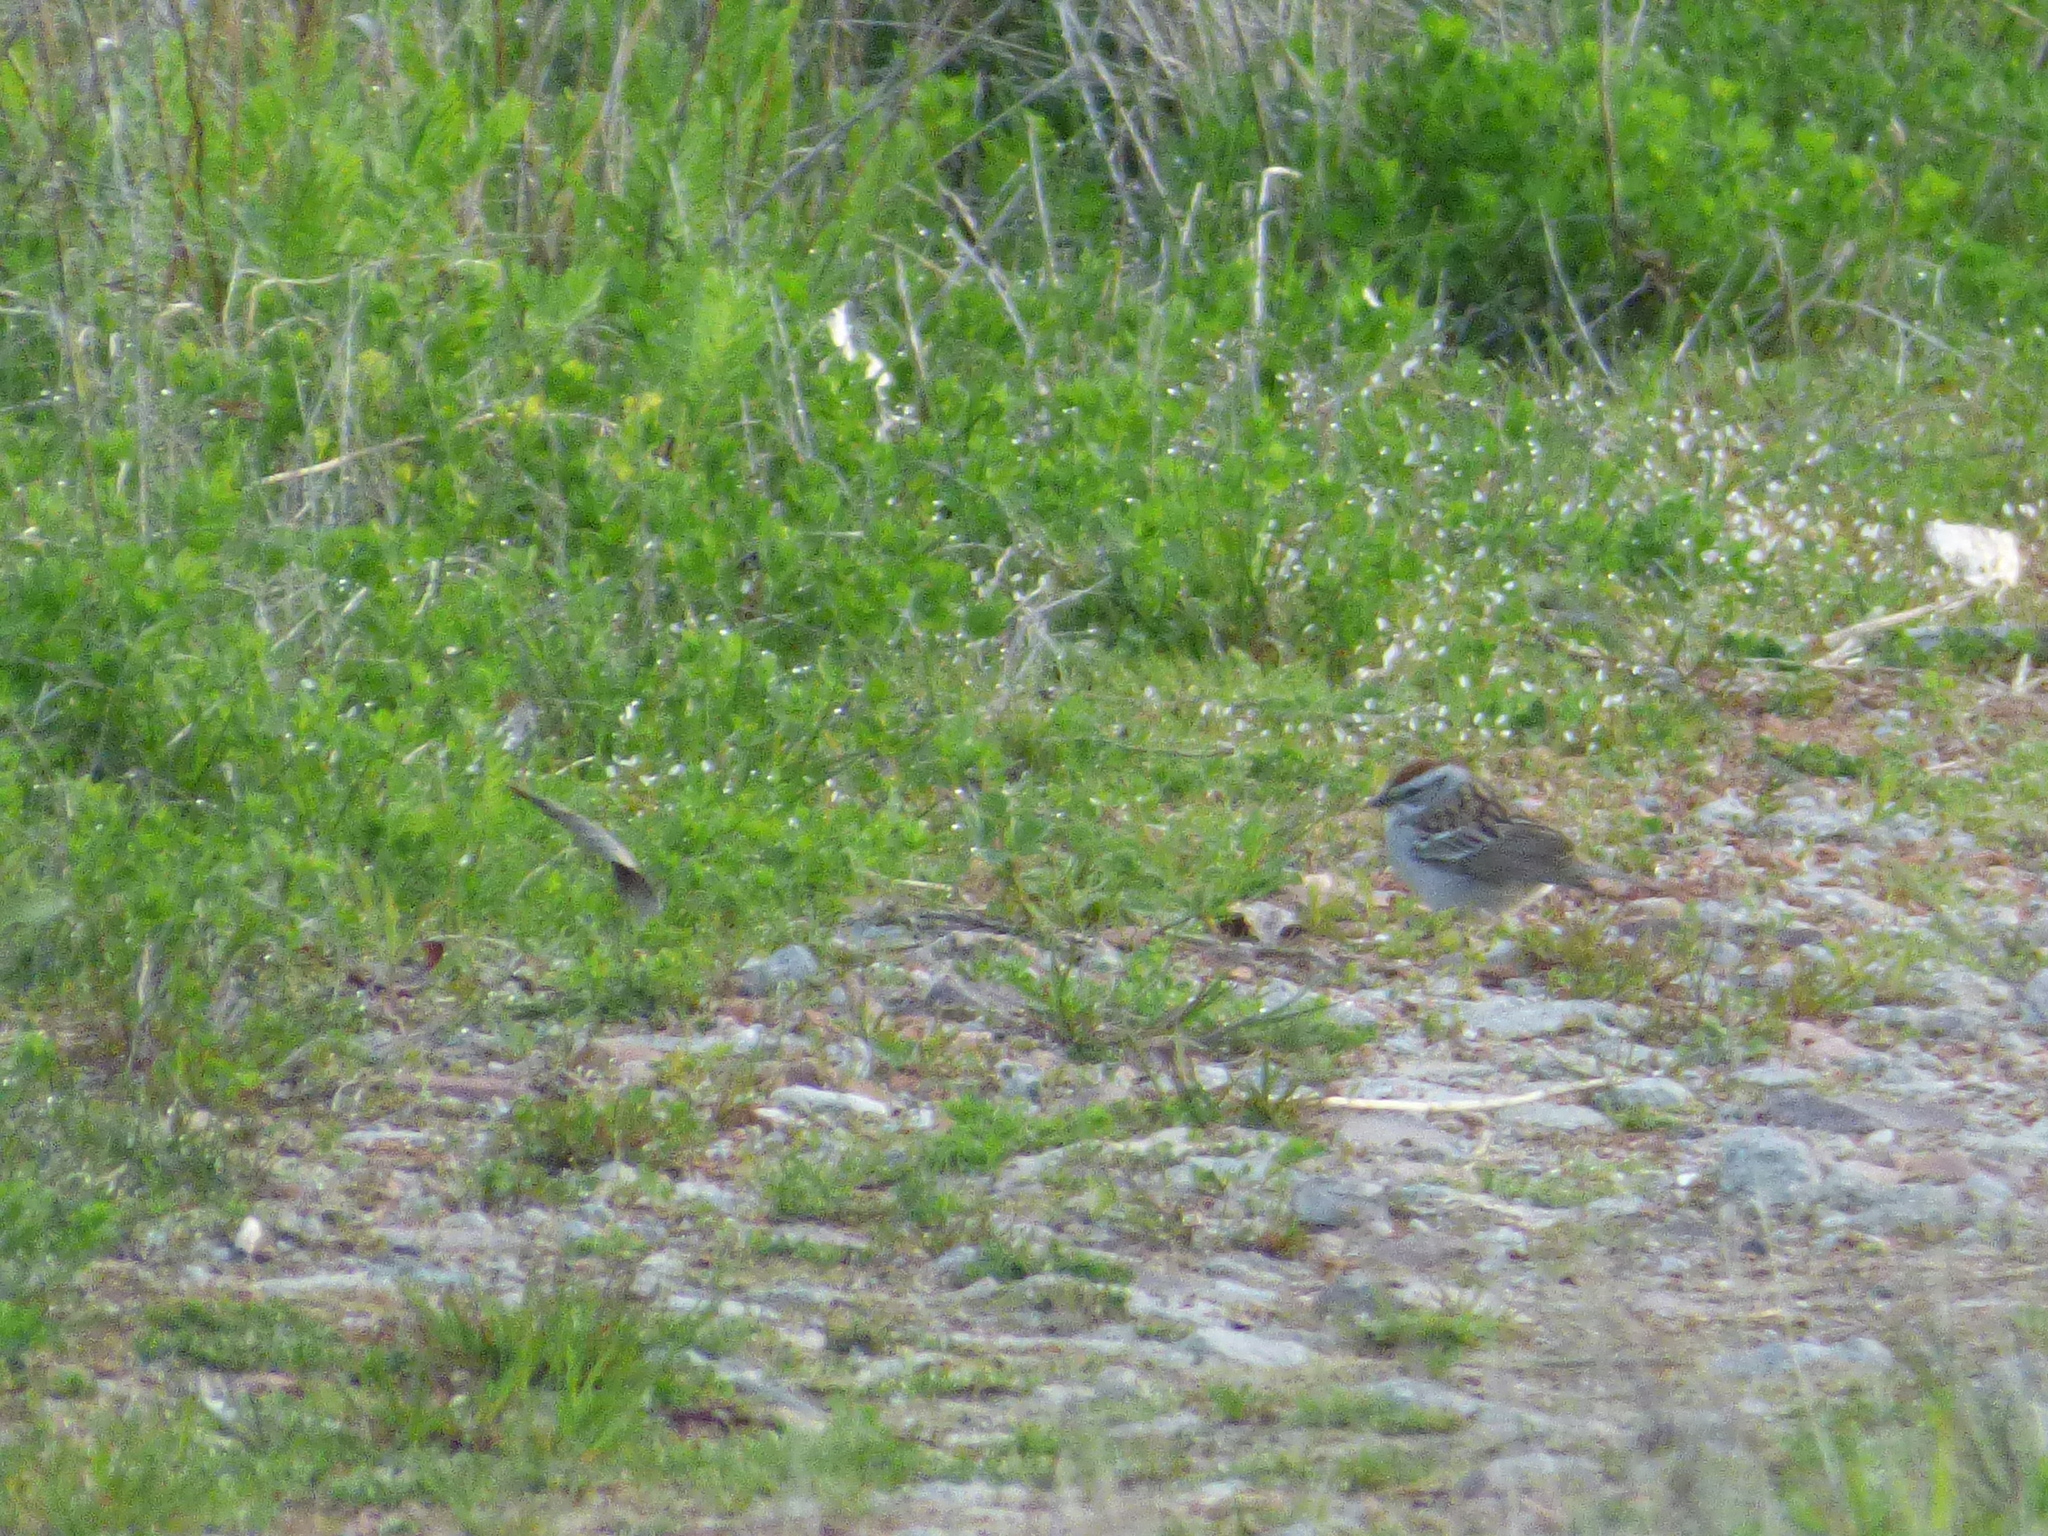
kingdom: Animalia
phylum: Chordata
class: Aves
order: Passeriformes
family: Passerellidae
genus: Spizella
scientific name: Spizella passerina
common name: Chipping sparrow
